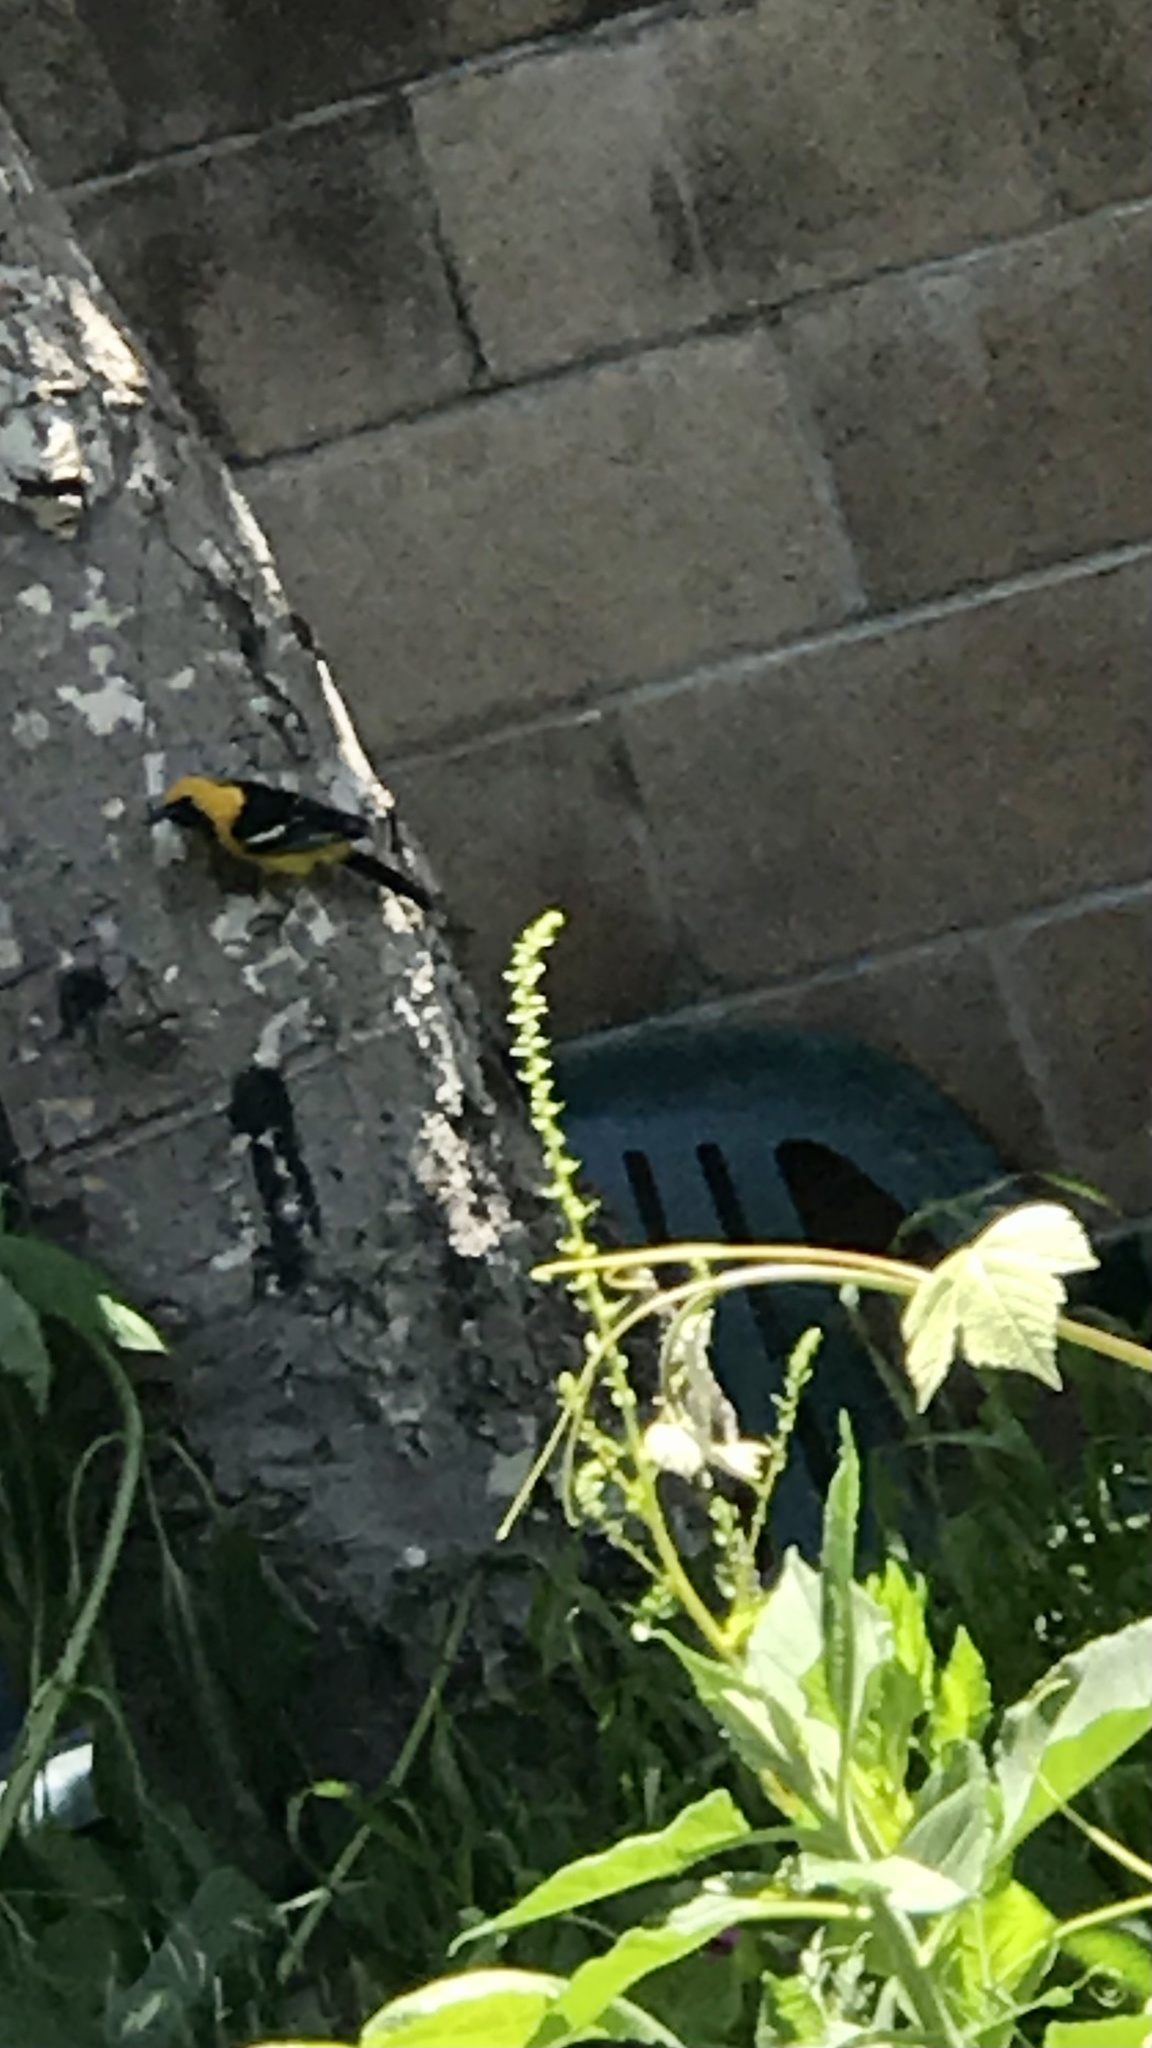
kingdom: Animalia
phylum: Chordata
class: Aves
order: Passeriformes
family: Icteridae
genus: Icterus
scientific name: Icterus cucullatus
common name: Hooded oriole
